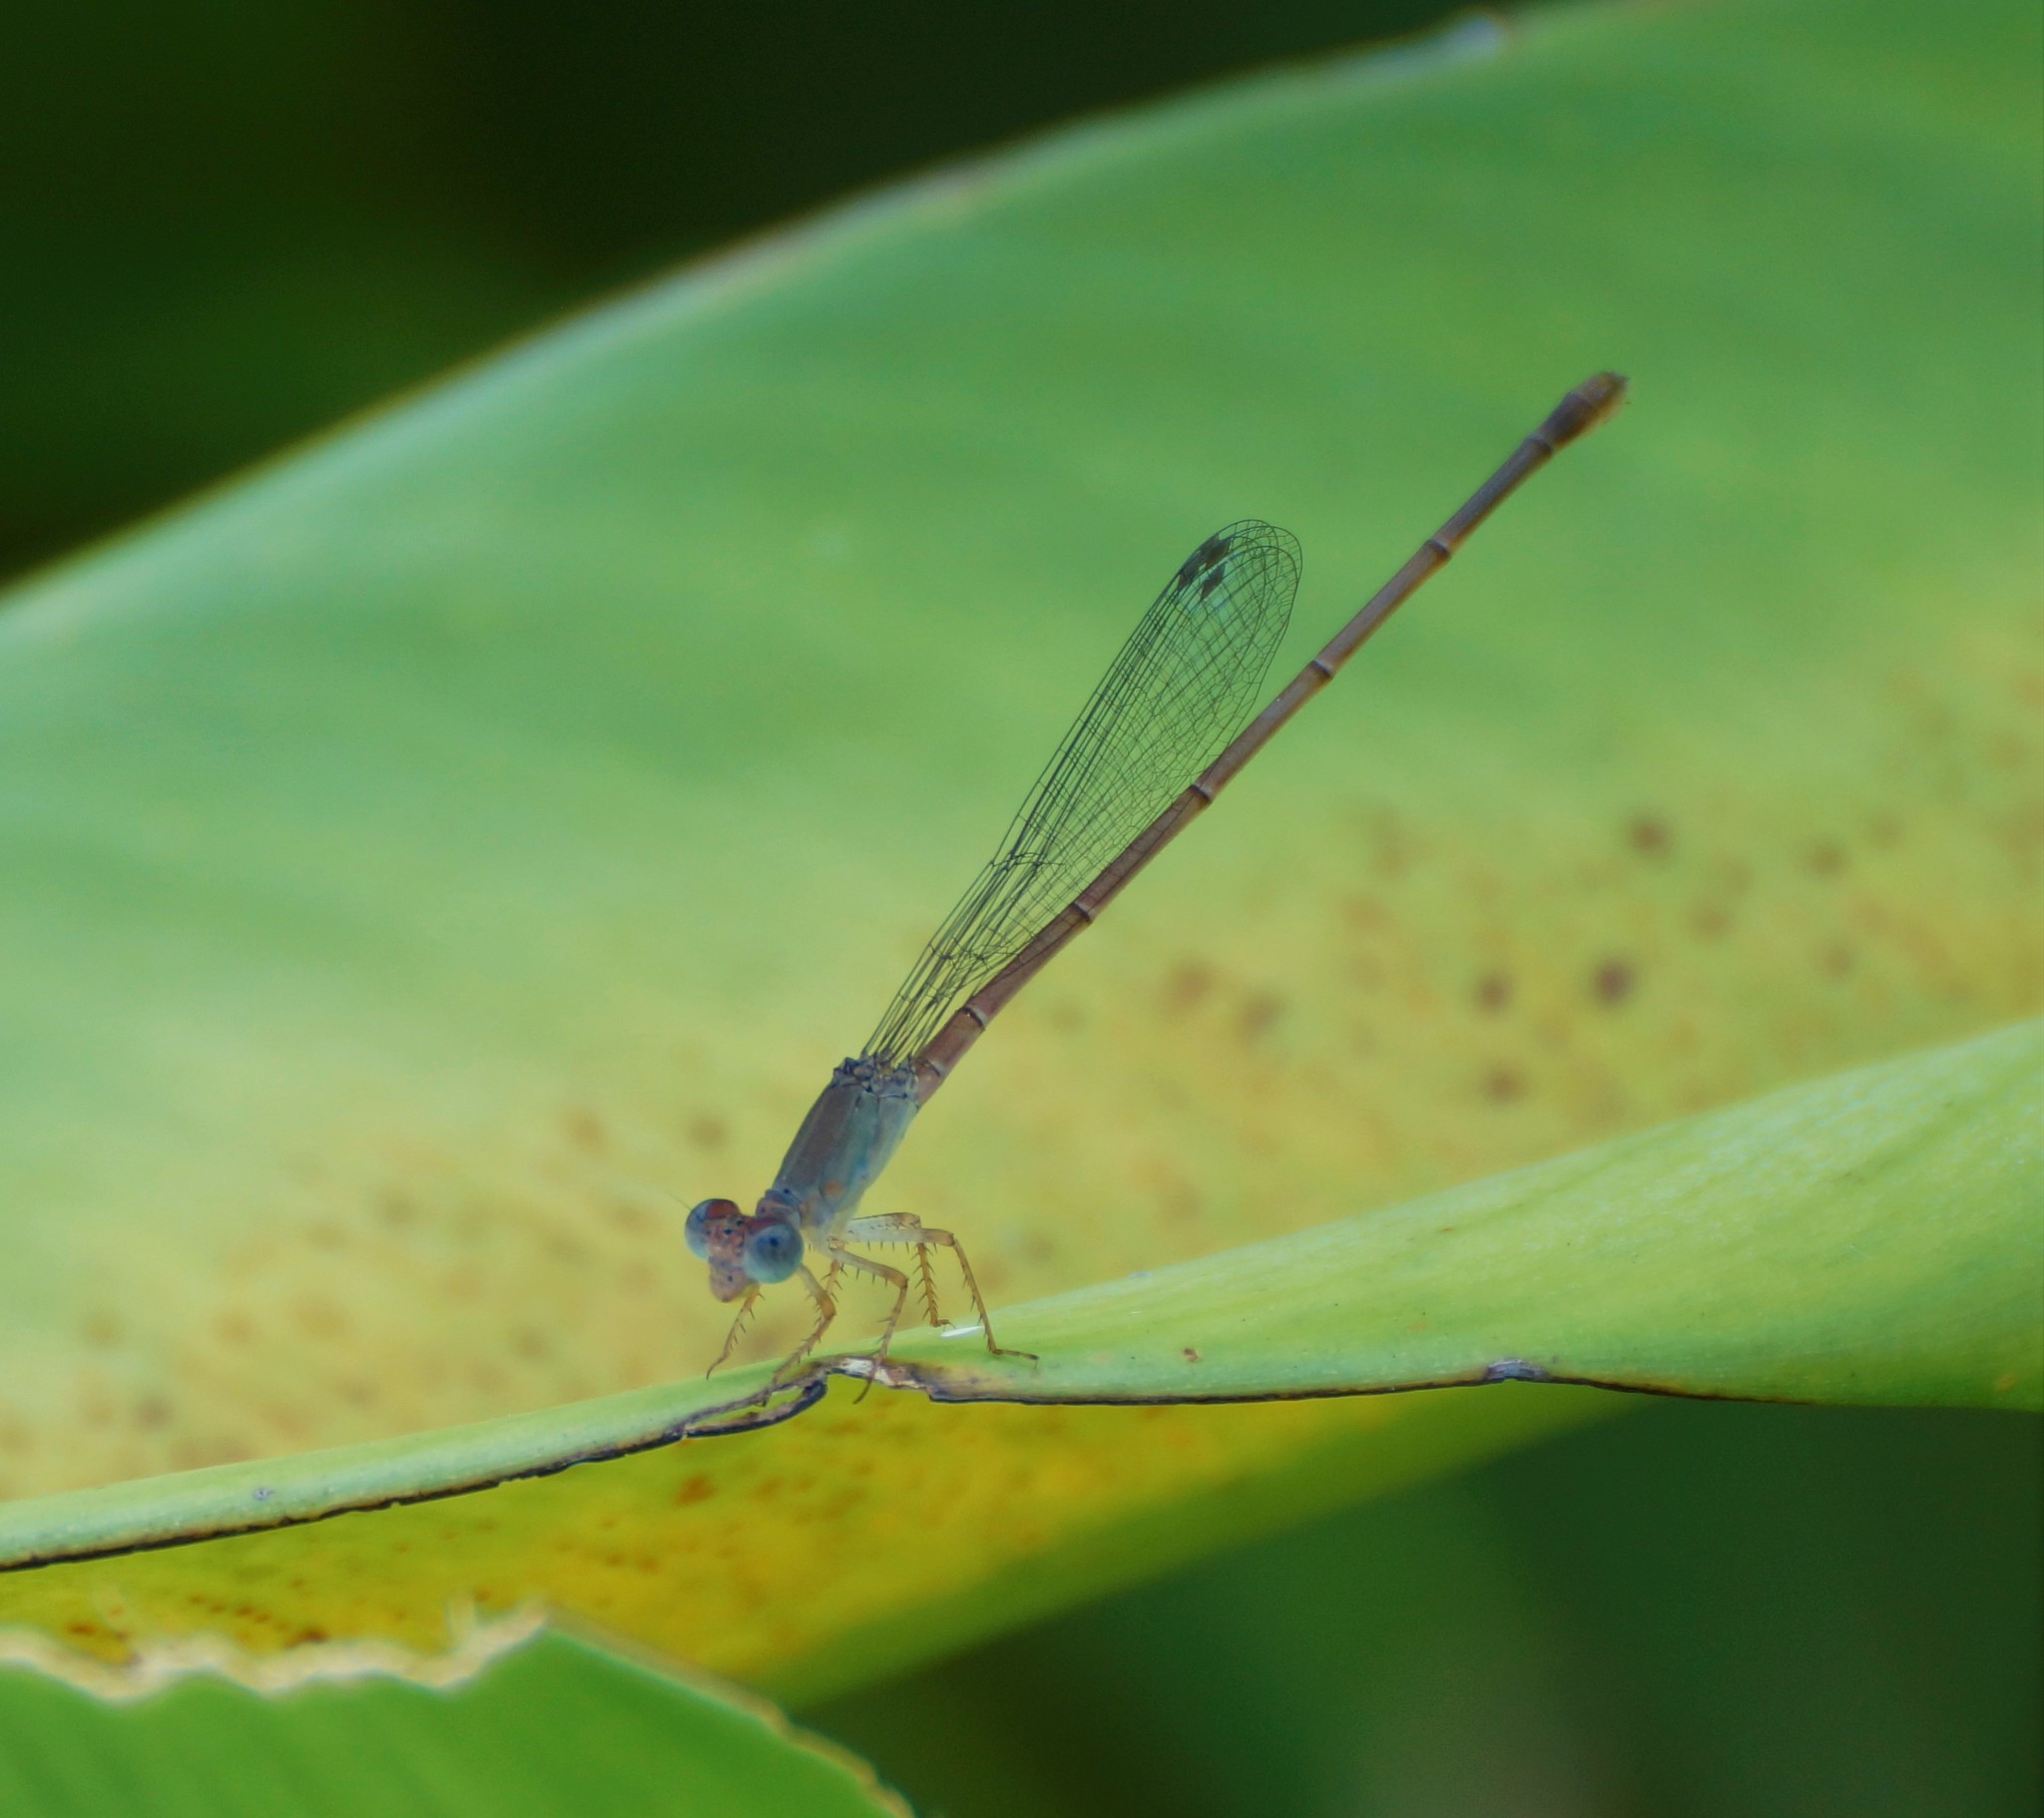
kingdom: Animalia
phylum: Arthropoda
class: Insecta
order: Odonata
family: Coenagrionidae
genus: Ceriagrion
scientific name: Ceriagrion aeruginosum
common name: Redtail
